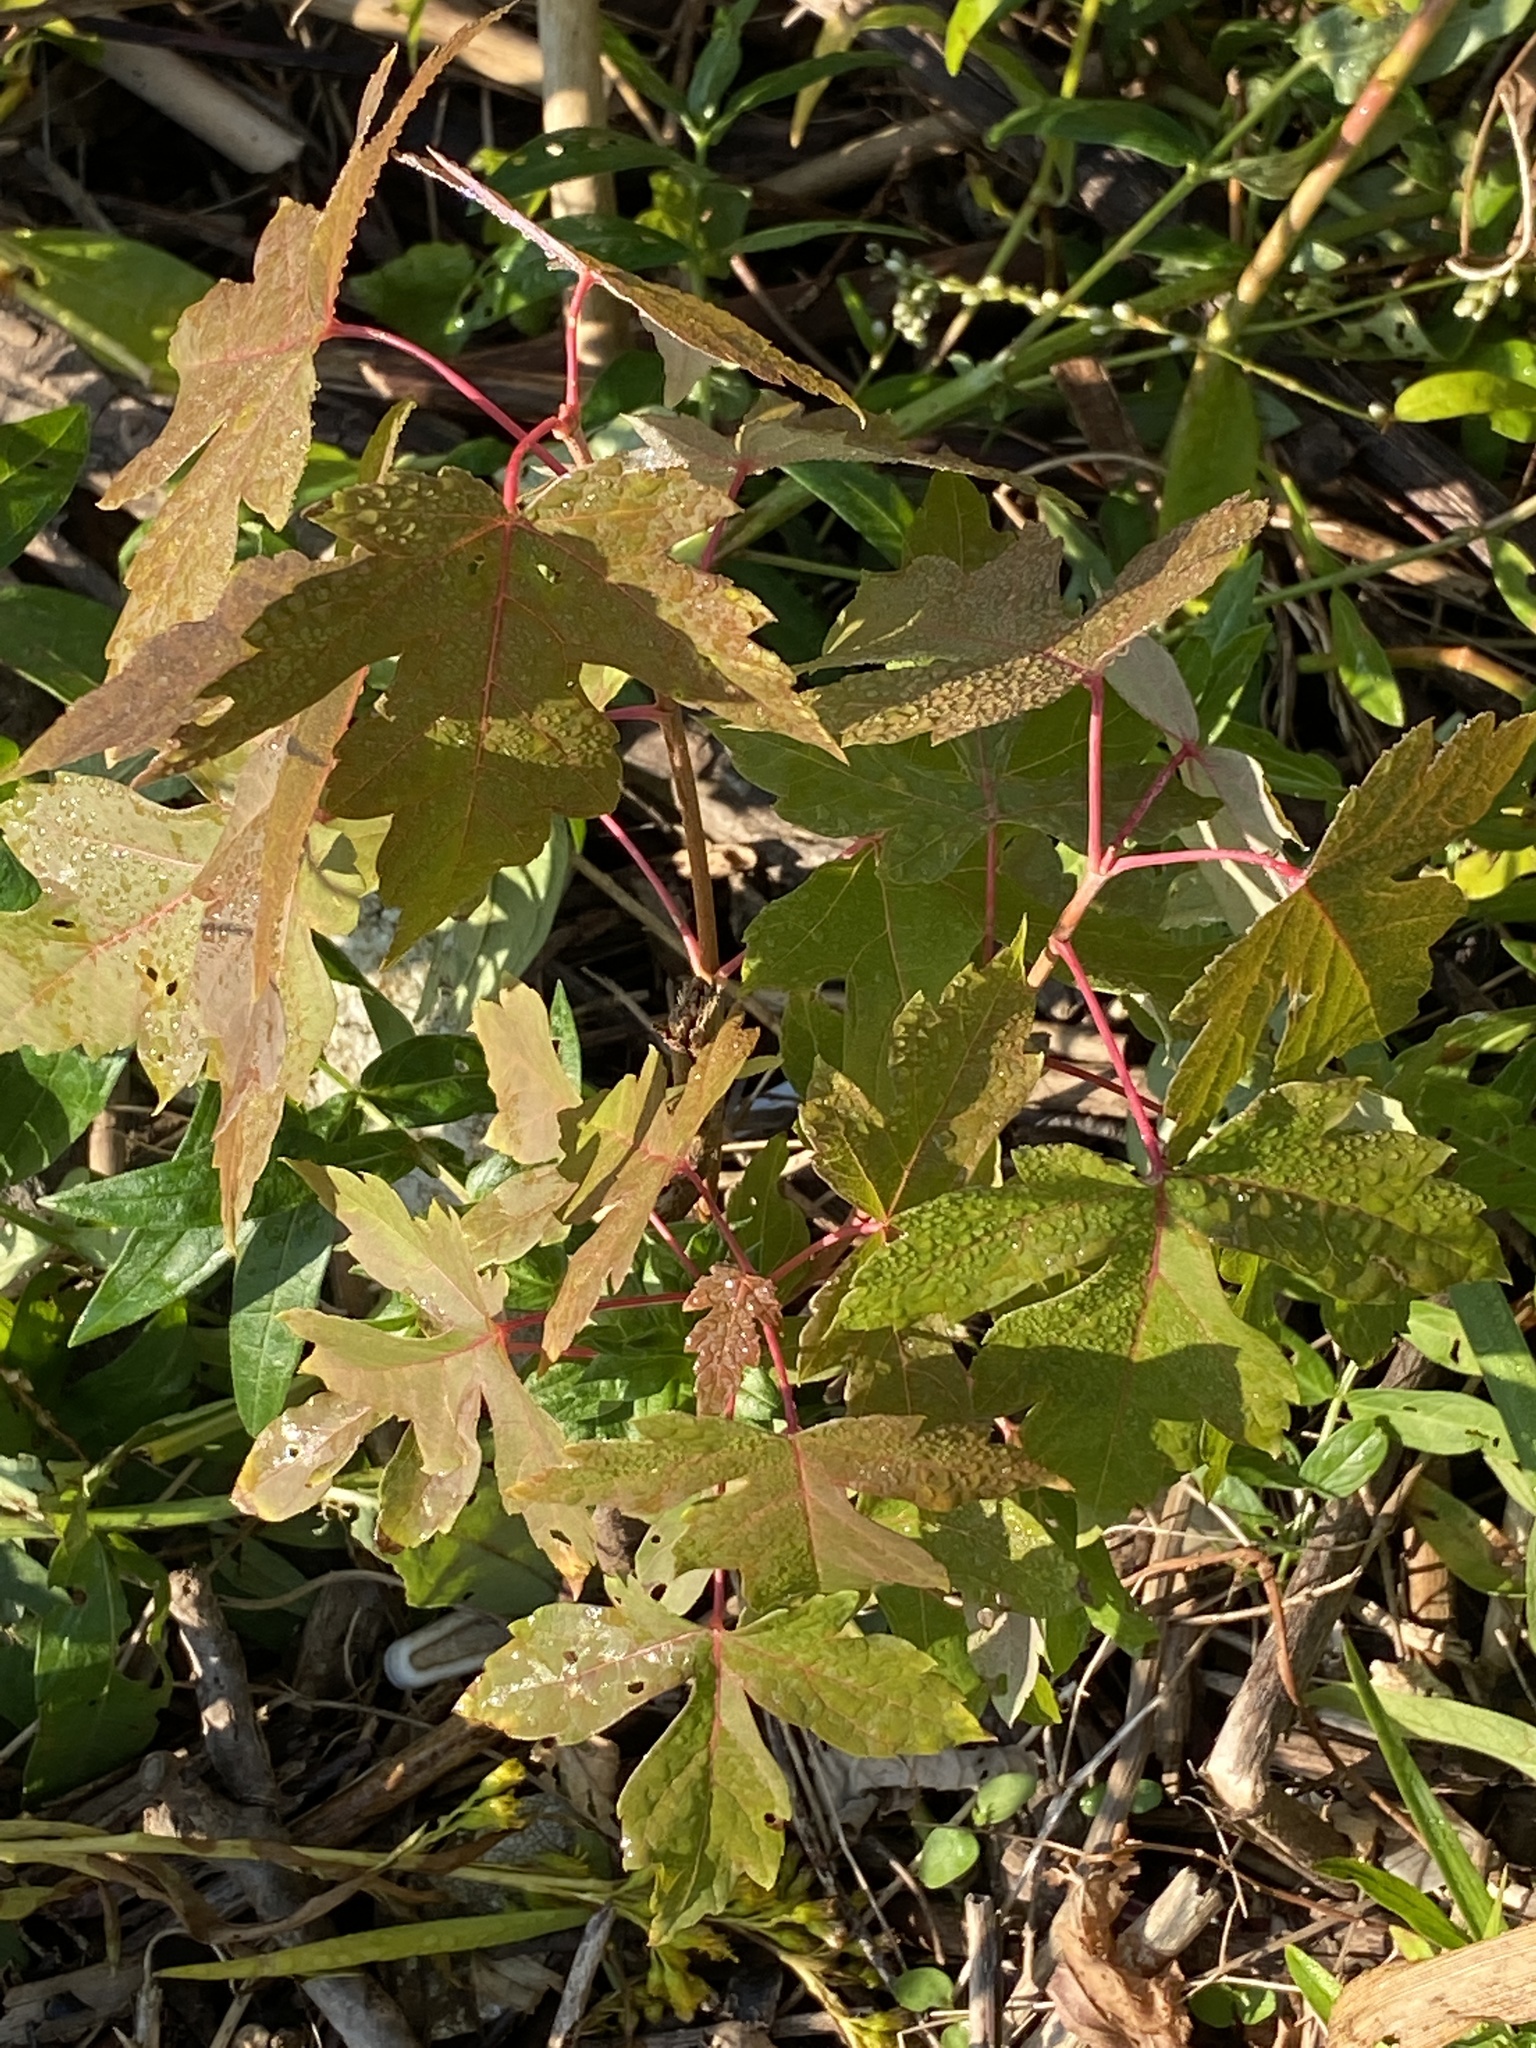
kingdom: Plantae
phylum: Tracheophyta
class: Magnoliopsida
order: Sapindales
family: Sapindaceae
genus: Acer
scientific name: Acer saccharinum
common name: Silver maple
